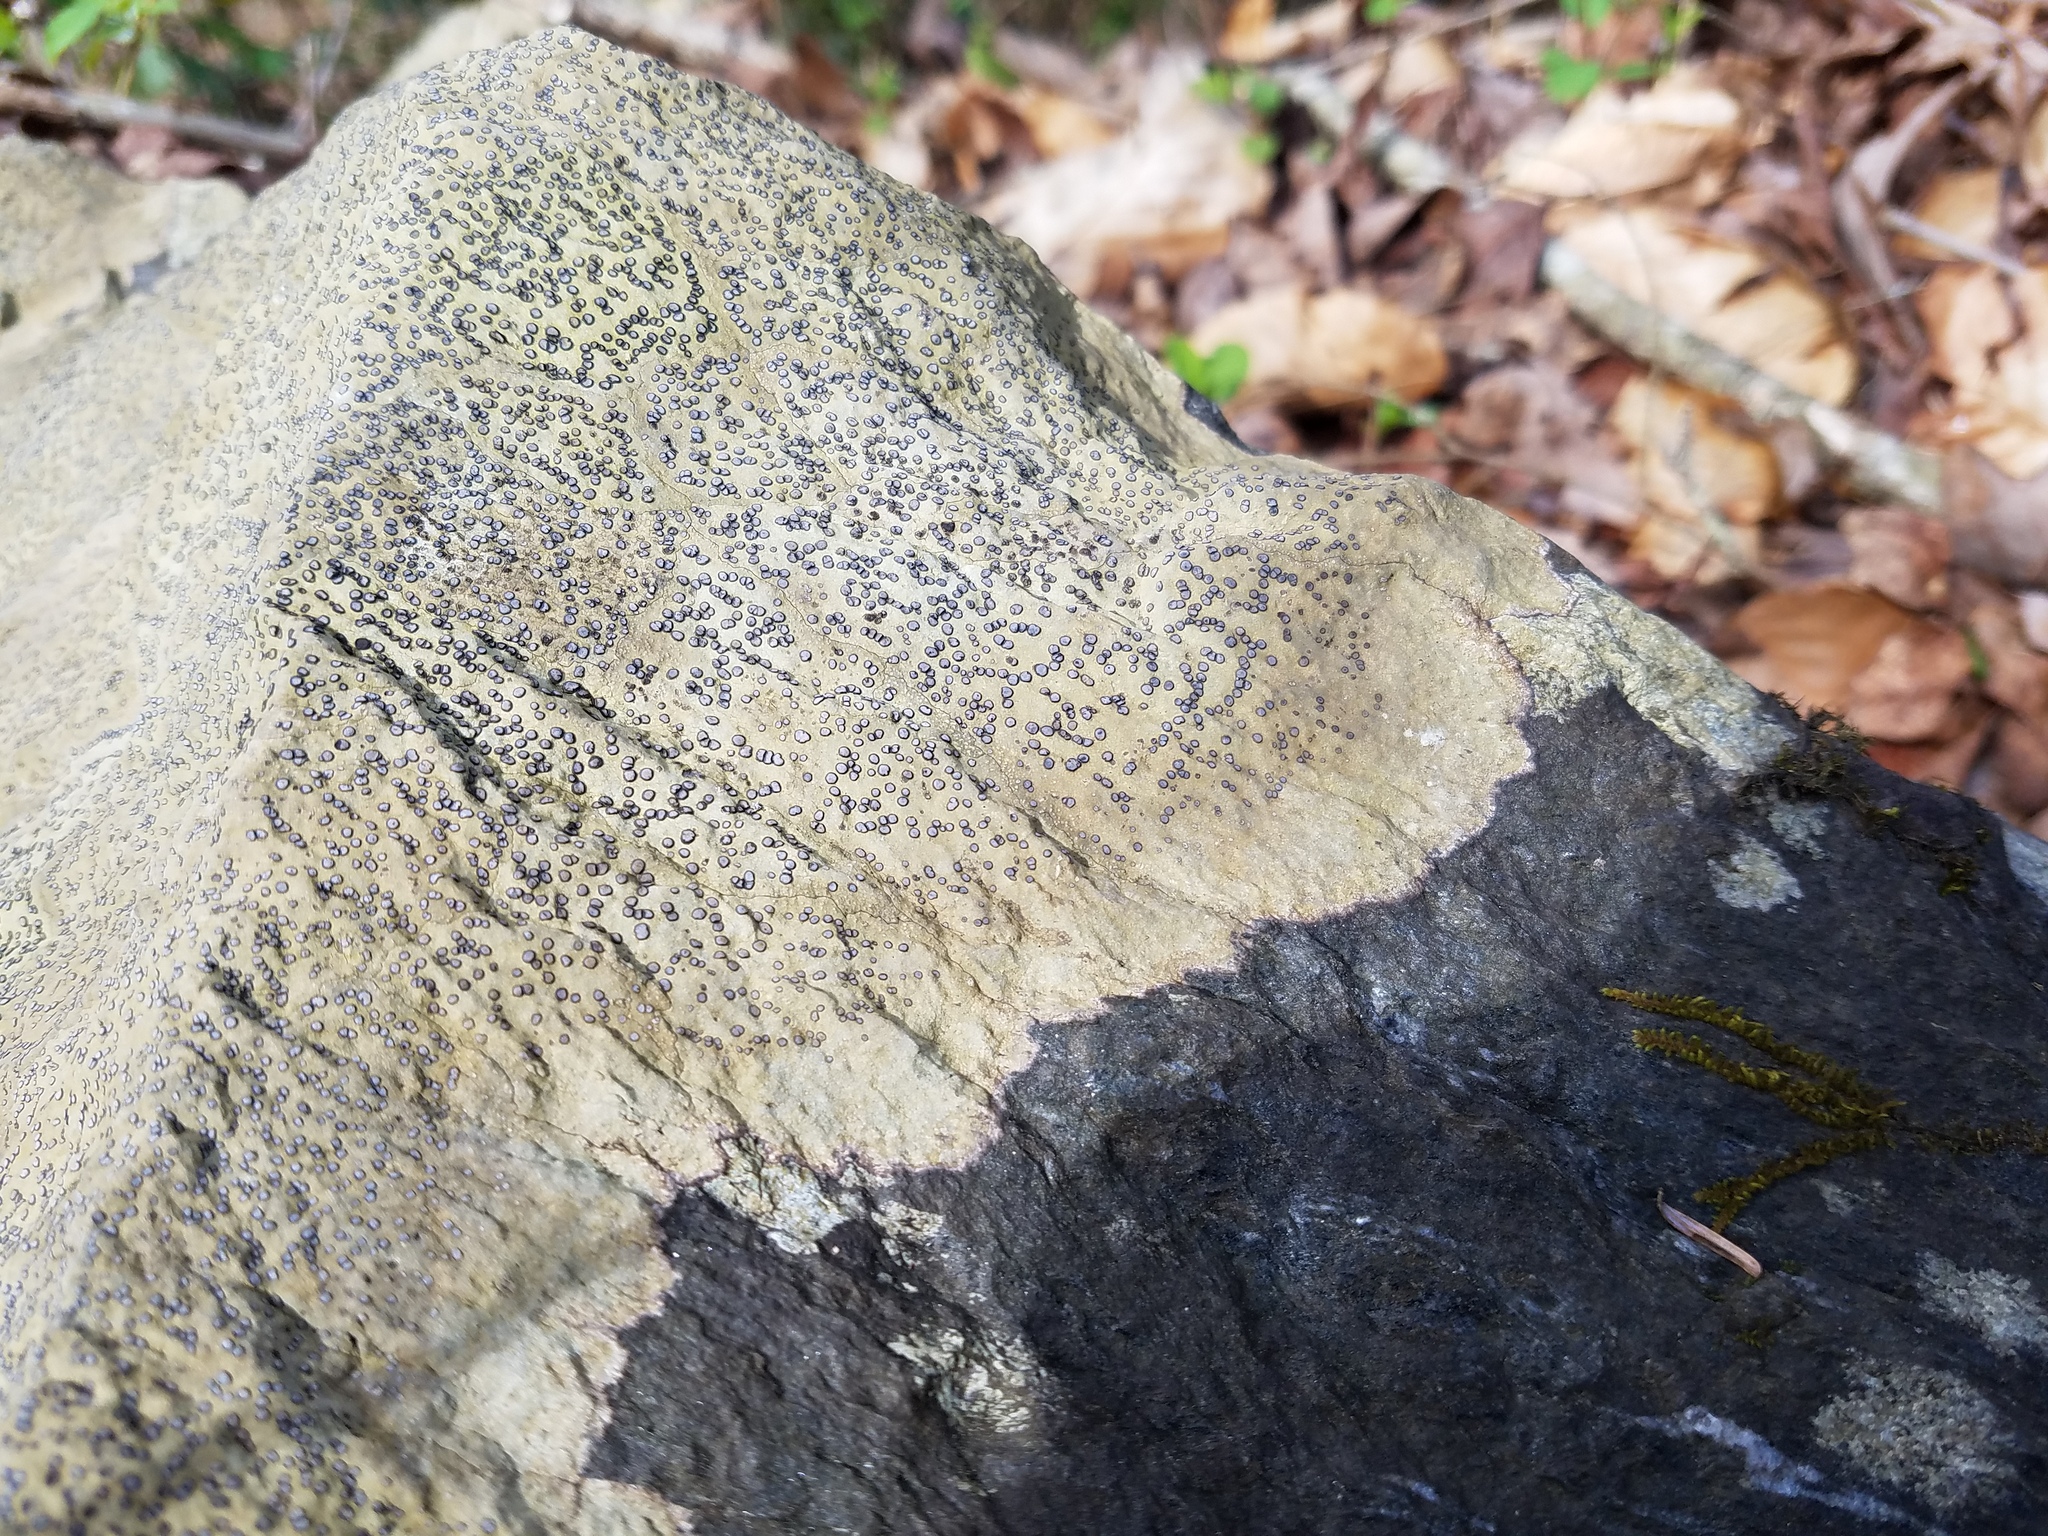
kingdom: Fungi
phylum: Ascomycota
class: Lecanoromycetes
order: Lecideales
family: Lecideaceae
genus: Porpidia
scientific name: Porpidia albocaerulescens
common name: Smokey-eyed boulder lichen
